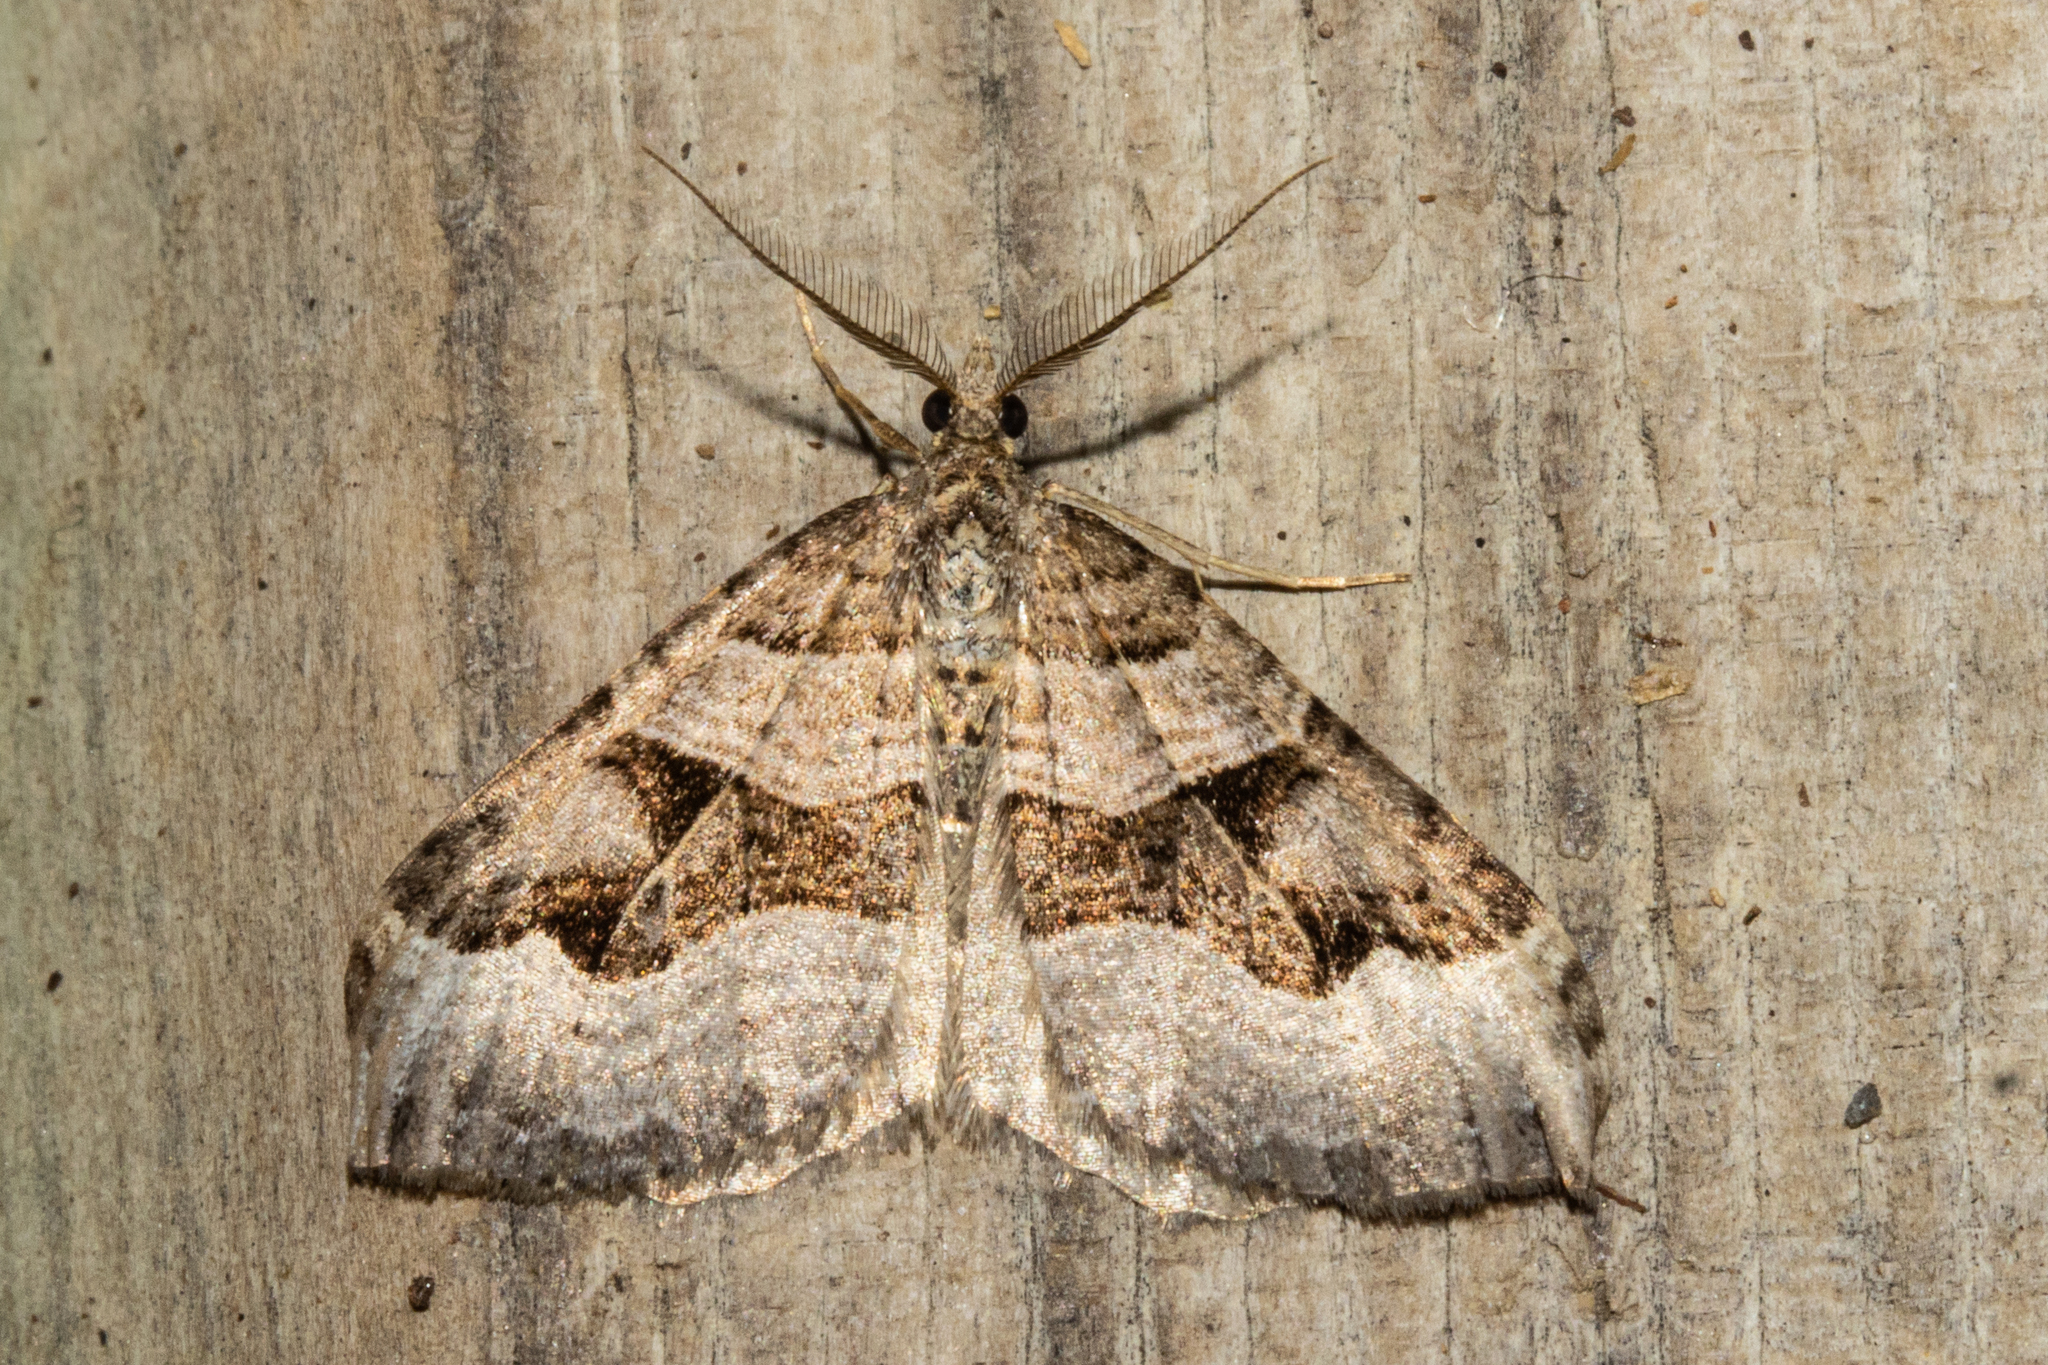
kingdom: Animalia
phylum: Arthropoda
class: Insecta
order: Lepidoptera
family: Geometridae
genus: Xanthorhoe
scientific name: Xanthorhoe semifissata
